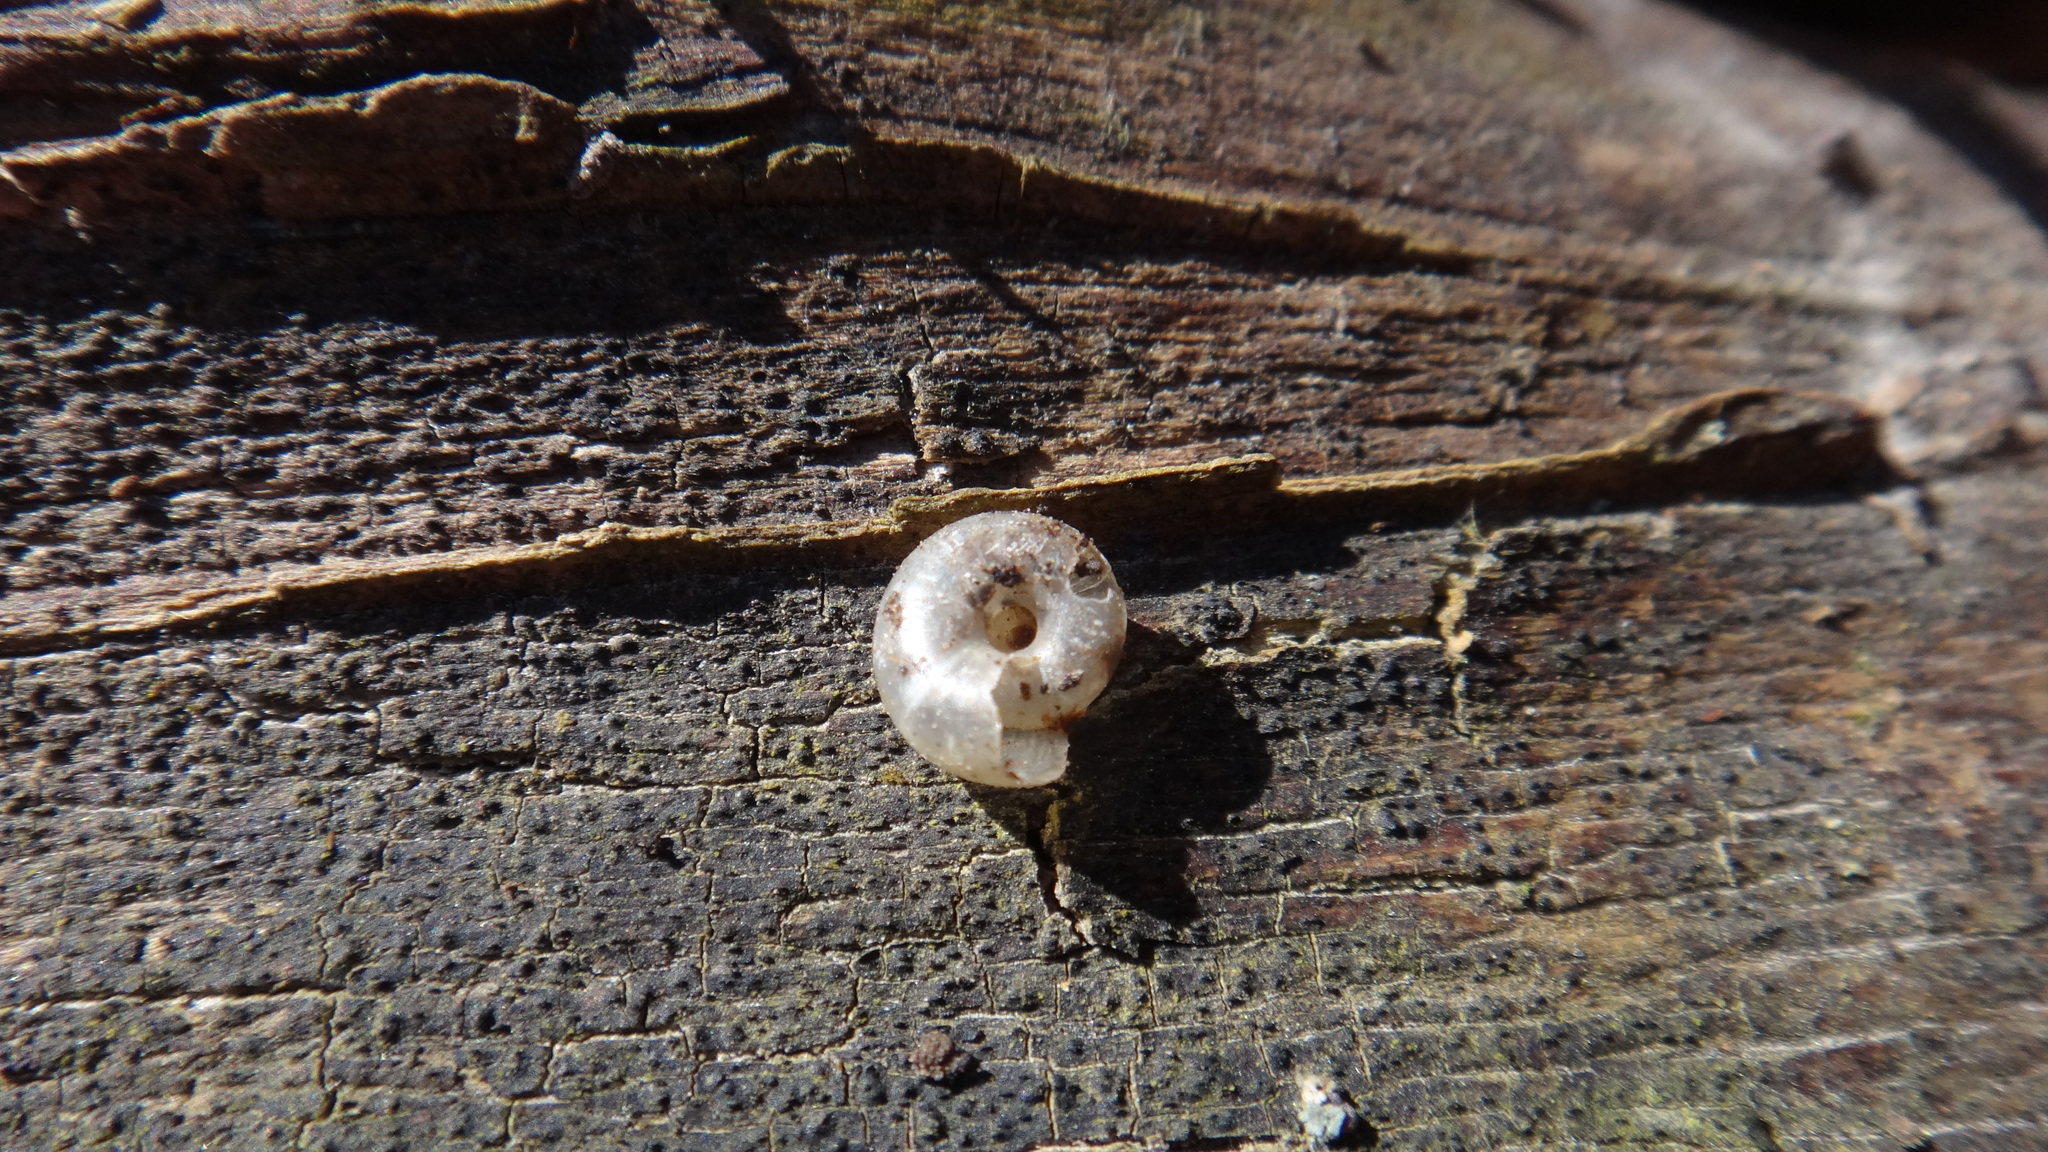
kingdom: Animalia
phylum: Mollusca
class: Gastropoda
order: Stylommatophora
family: Gastrodontidae
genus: Aegopinella
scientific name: Aegopinella minor
